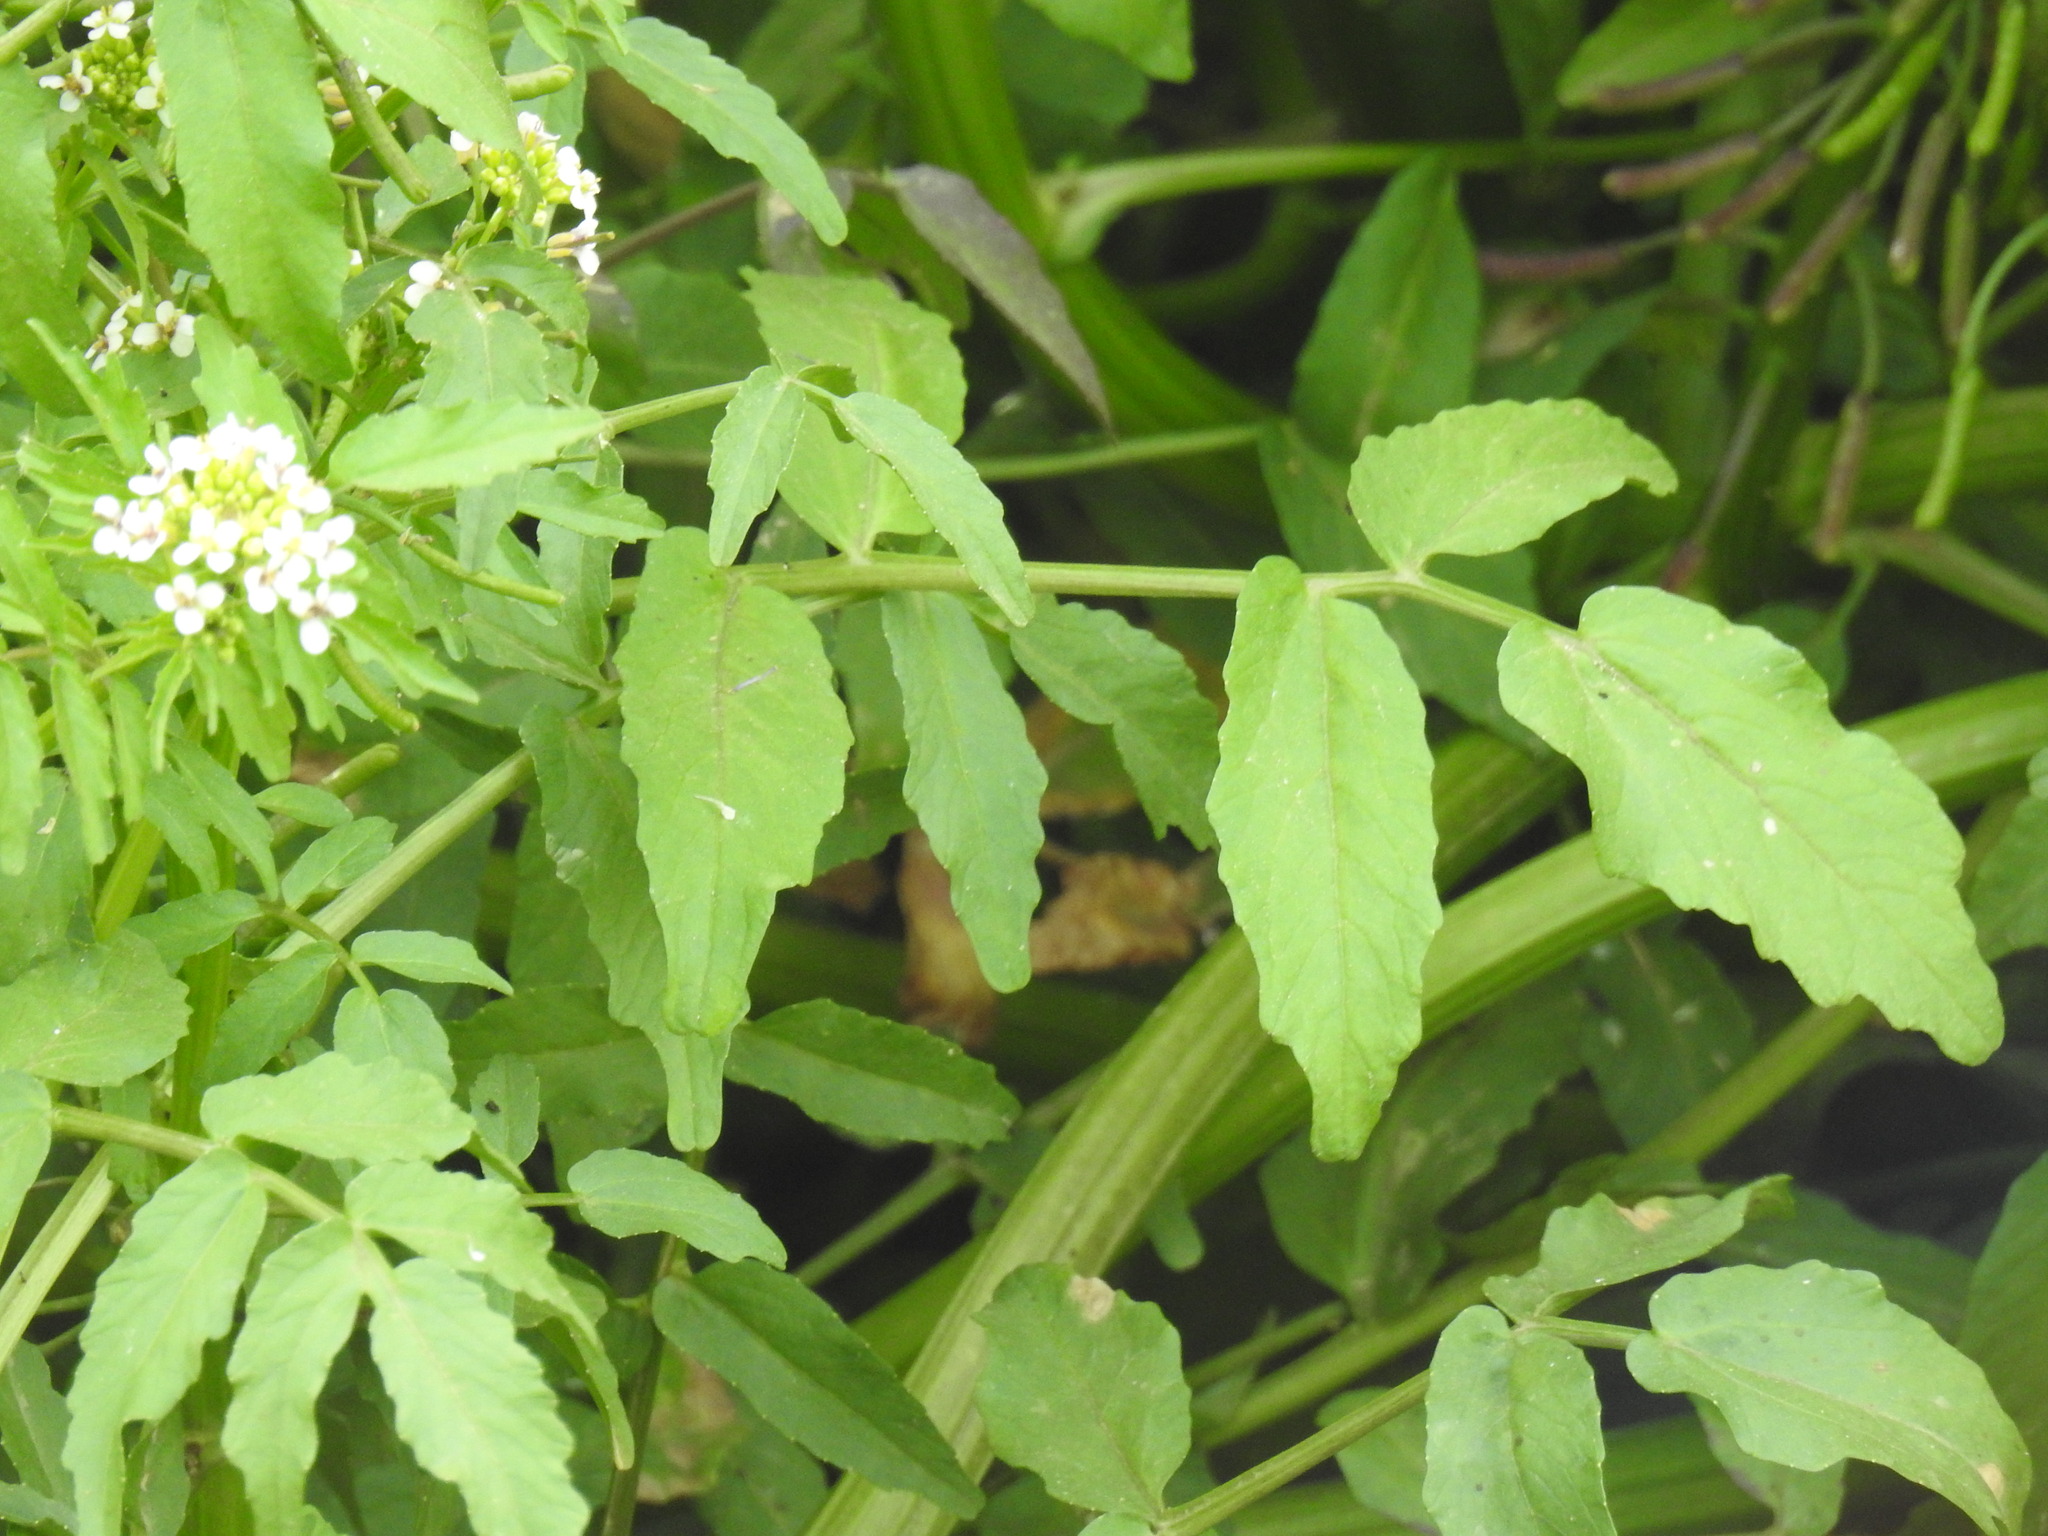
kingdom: Plantae
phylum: Tracheophyta
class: Magnoliopsida
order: Brassicales
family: Brassicaceae
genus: Nasturtium
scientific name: Nasturtium officinale
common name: Watercress
